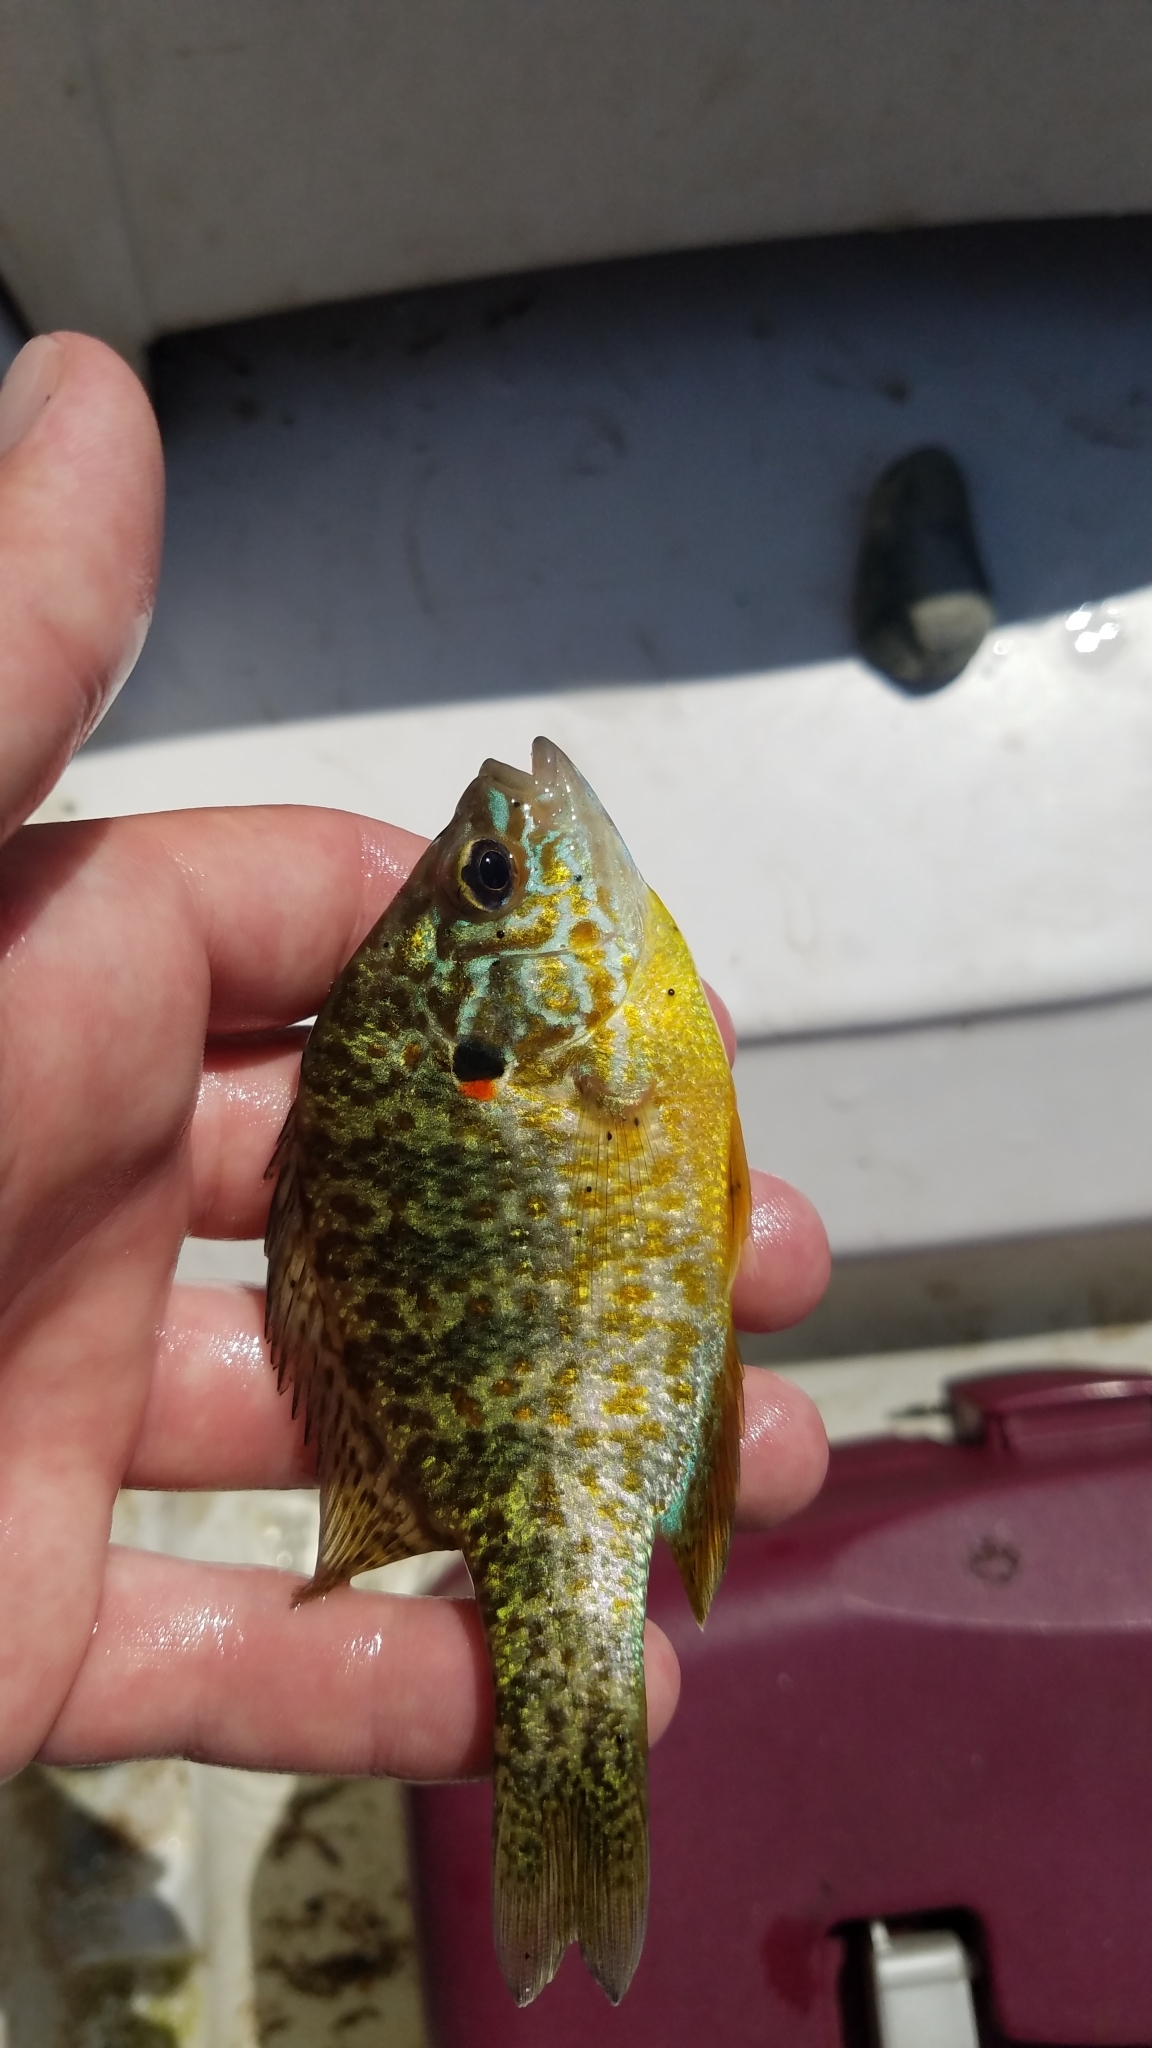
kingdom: Animalia
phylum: Chordata
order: Perciformes
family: Centrarchidae
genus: Lepomis
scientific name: Lepomis gibbosus
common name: Pumpkinseed
